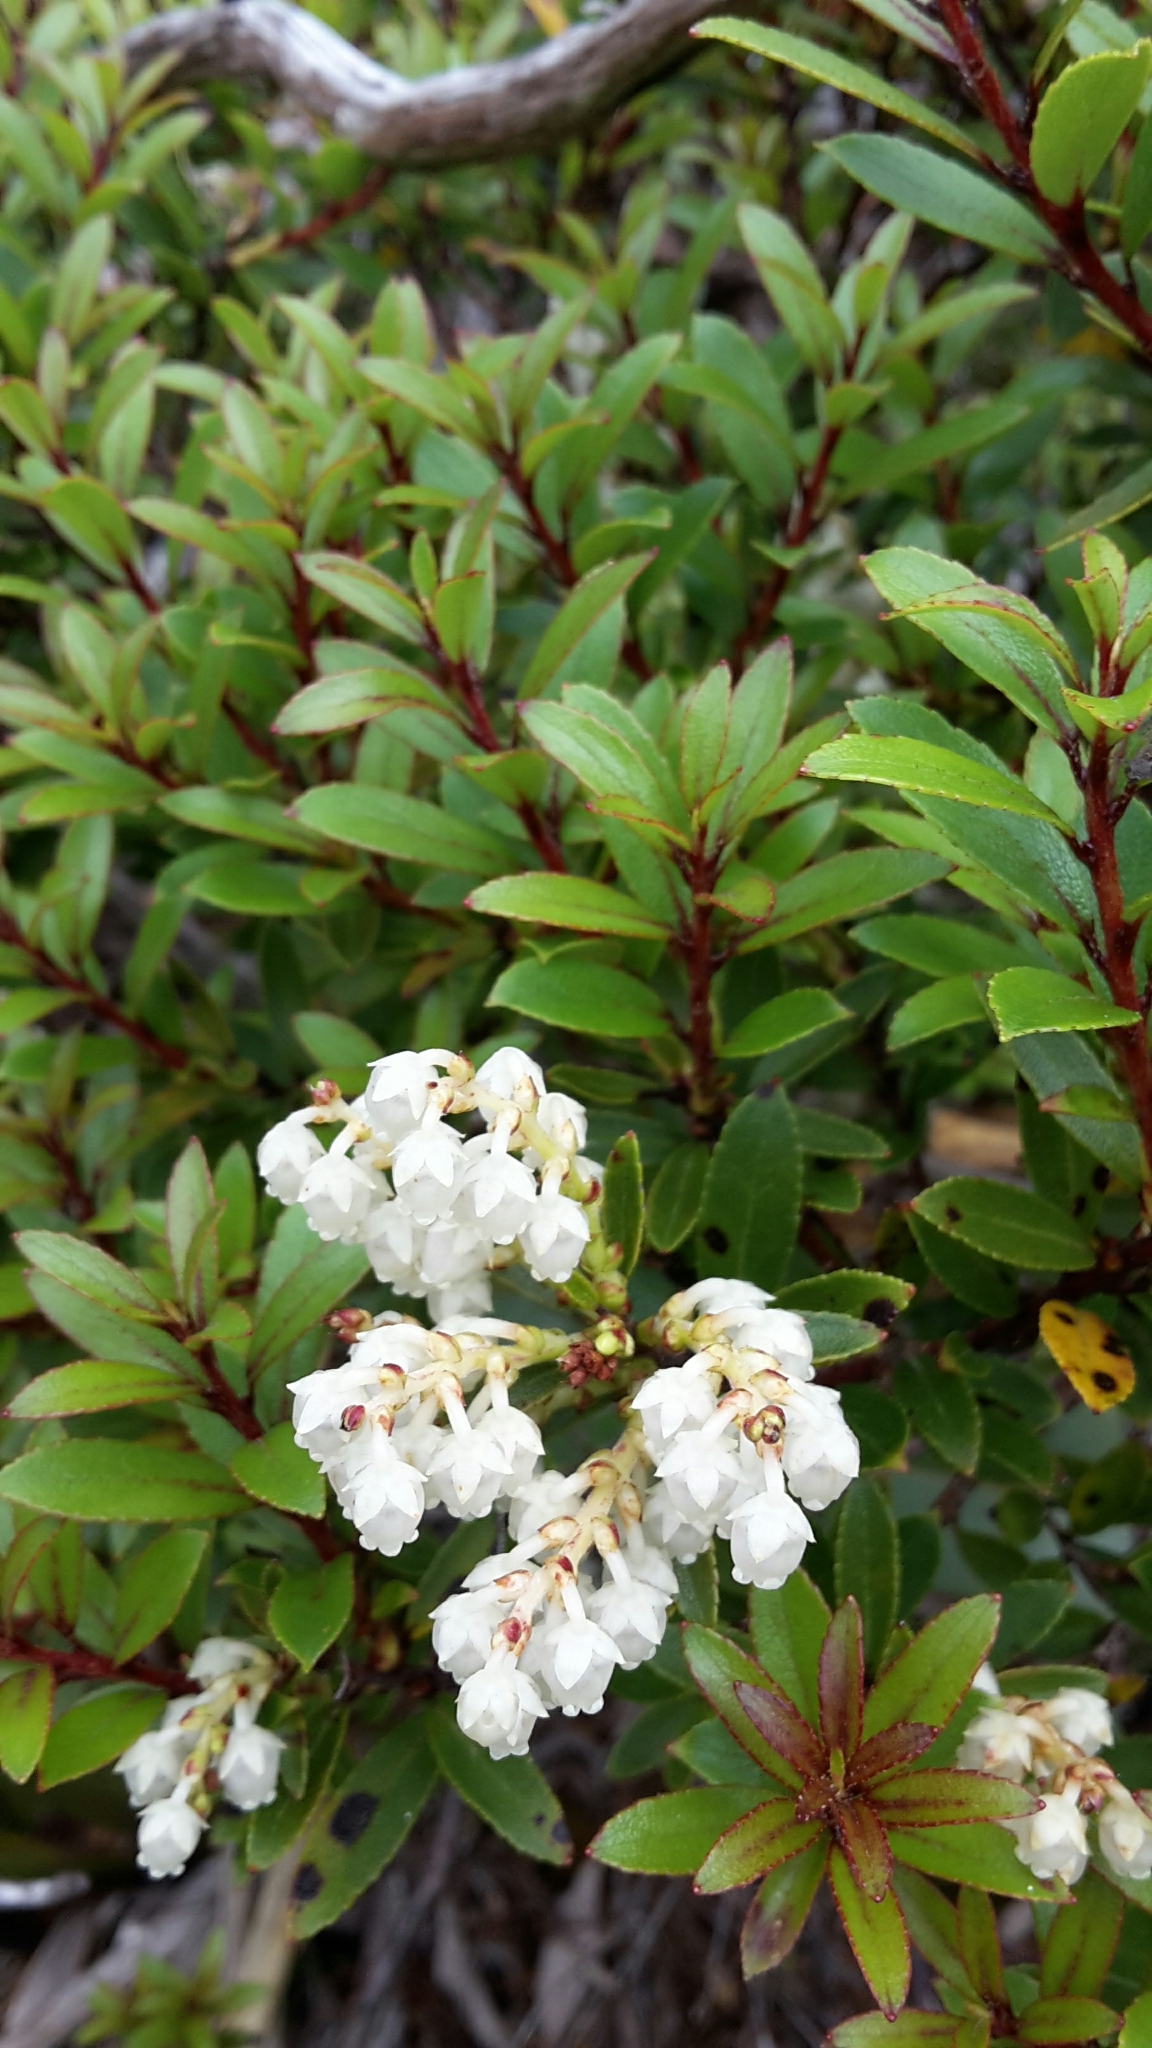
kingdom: Plantae
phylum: Tracheophyta
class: Magnoliopsida
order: Ericales
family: Ericaceae
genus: Gaultheria
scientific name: Gaultheria rupestris
